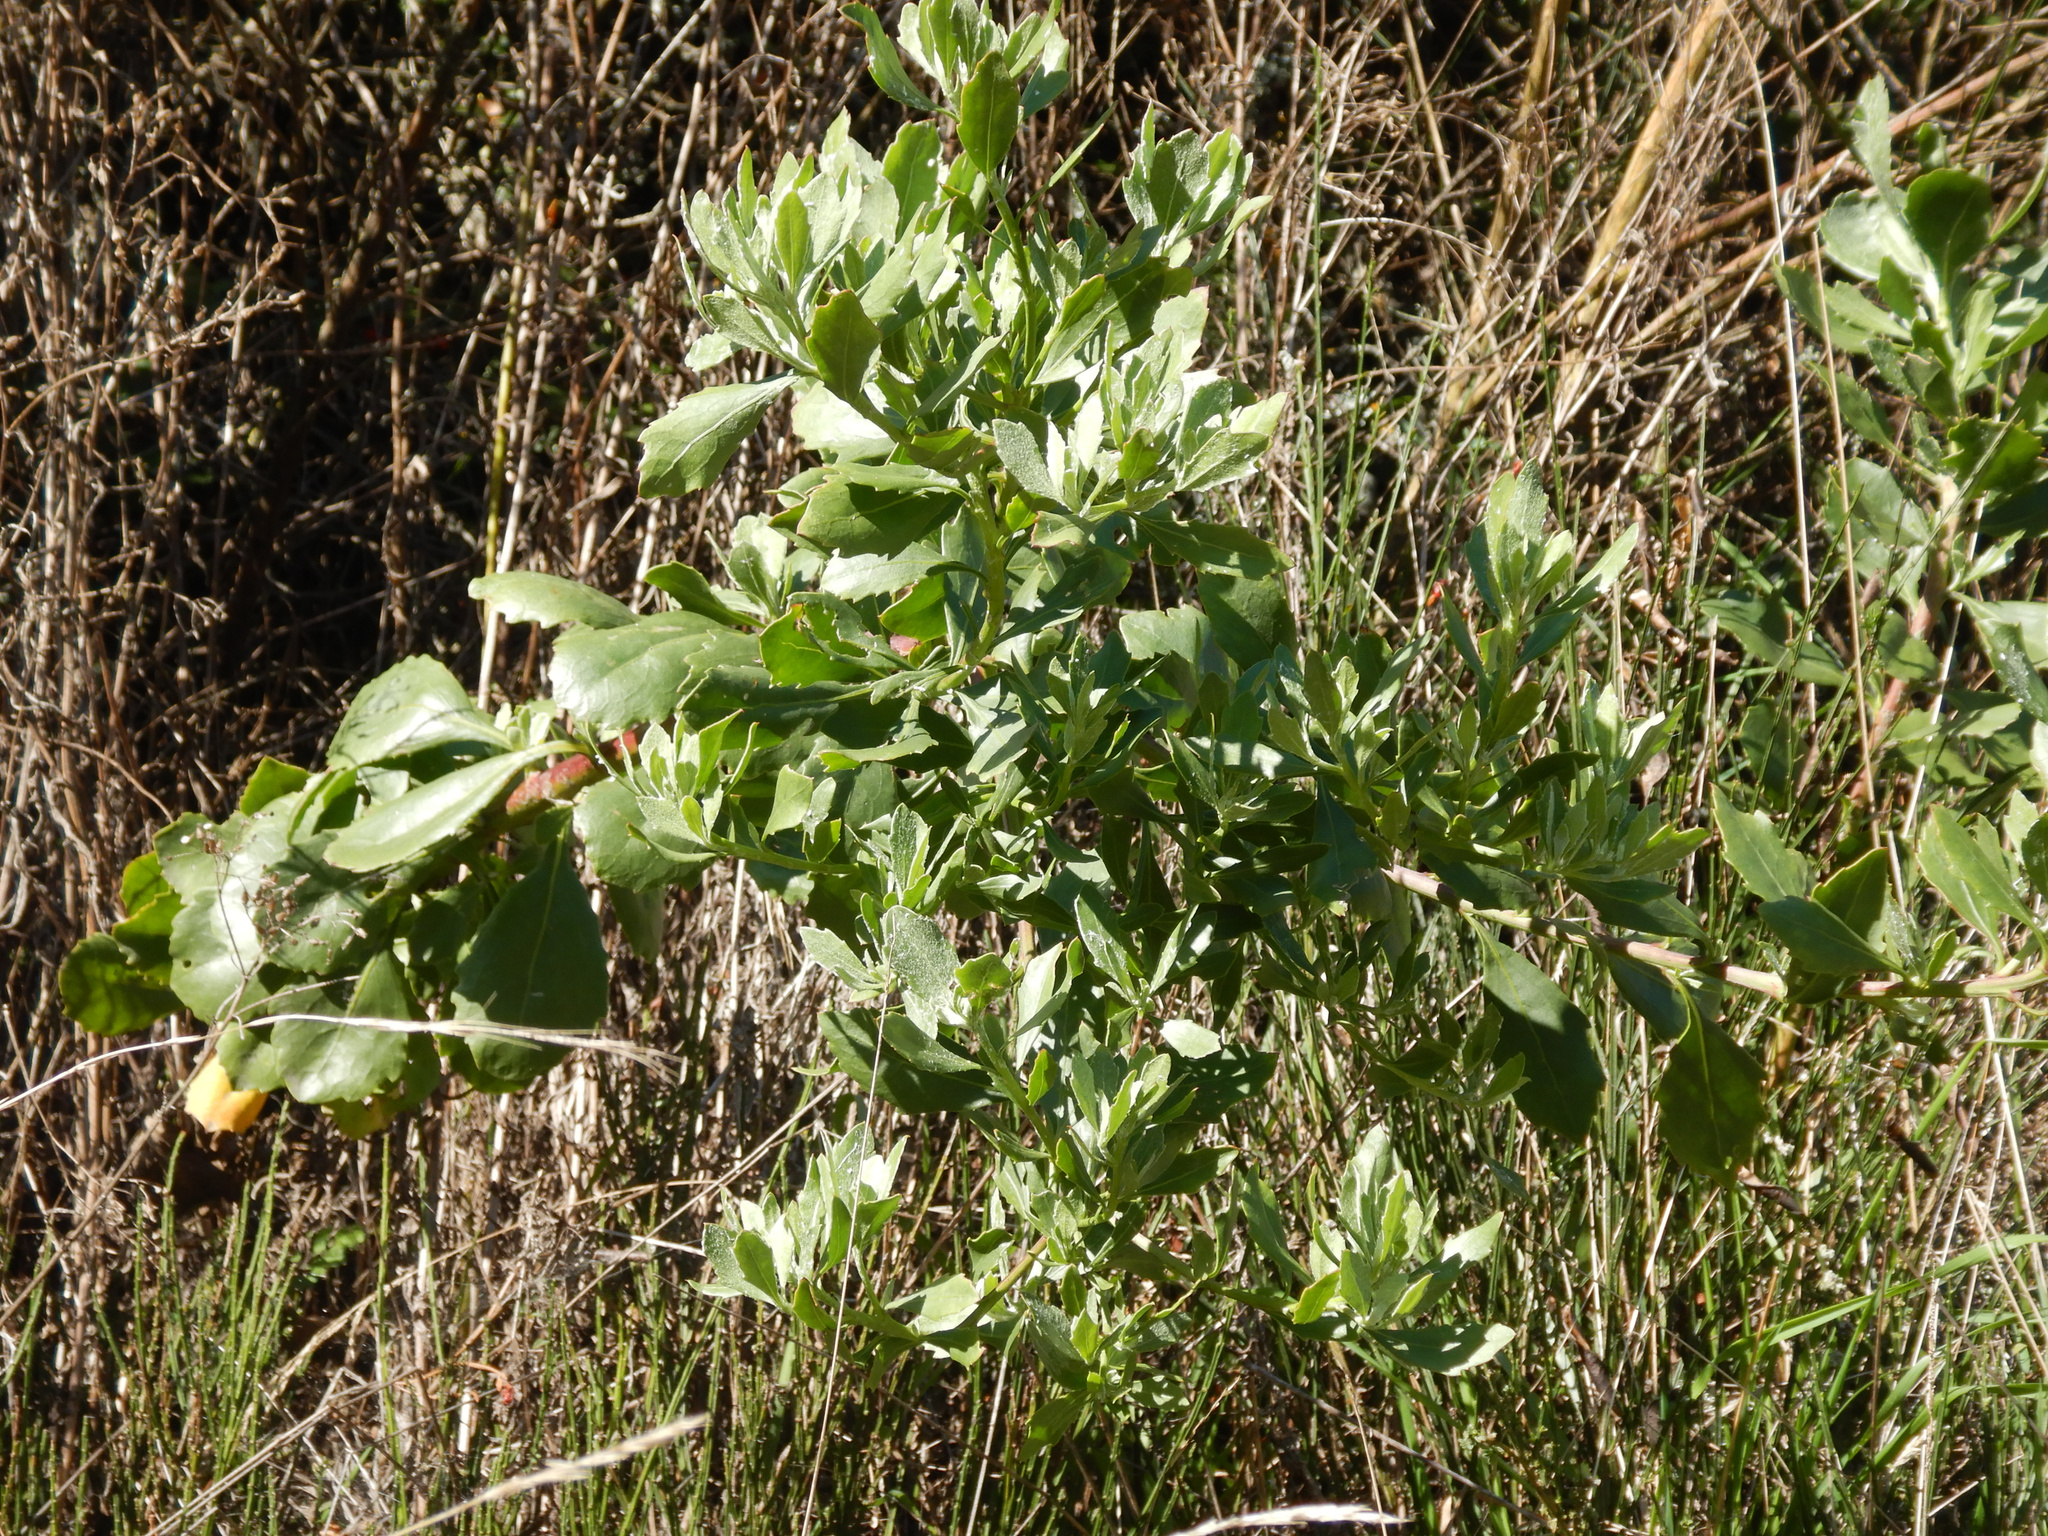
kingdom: Plantae
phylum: Tracheophyta
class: Magnoliopsida
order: Asterales
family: Asteraceae
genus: Osteospermum
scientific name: Osteospermum moniliferum
